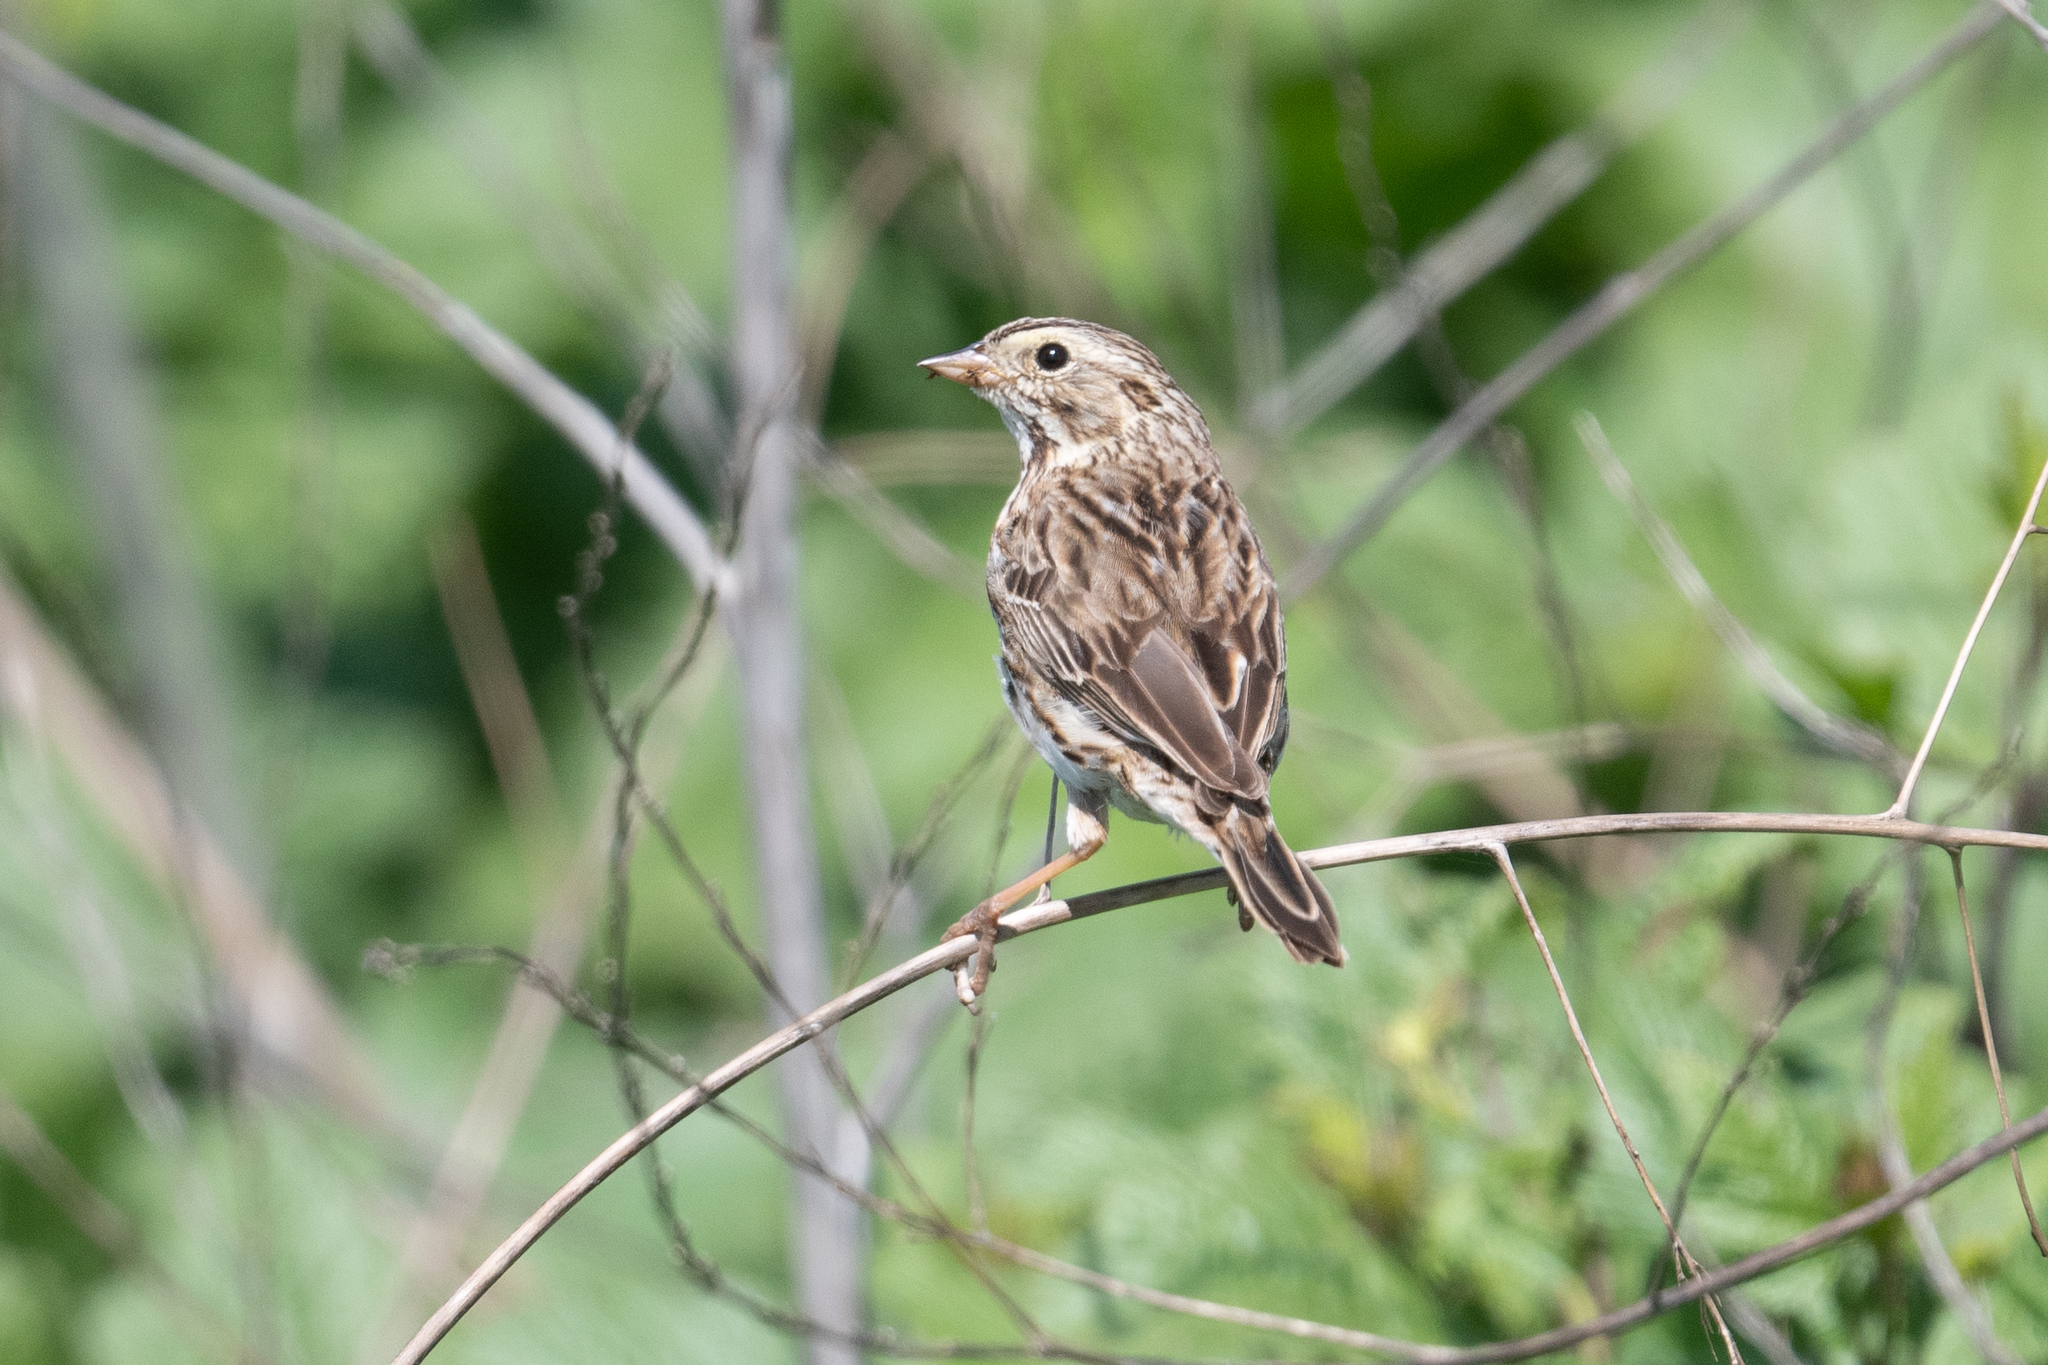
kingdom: Animalia
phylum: Chordata
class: Aves
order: Passeriformes
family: Passerellidae
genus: Passerculus
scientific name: Passerculus sandwichensis
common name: Savannah sparrow
